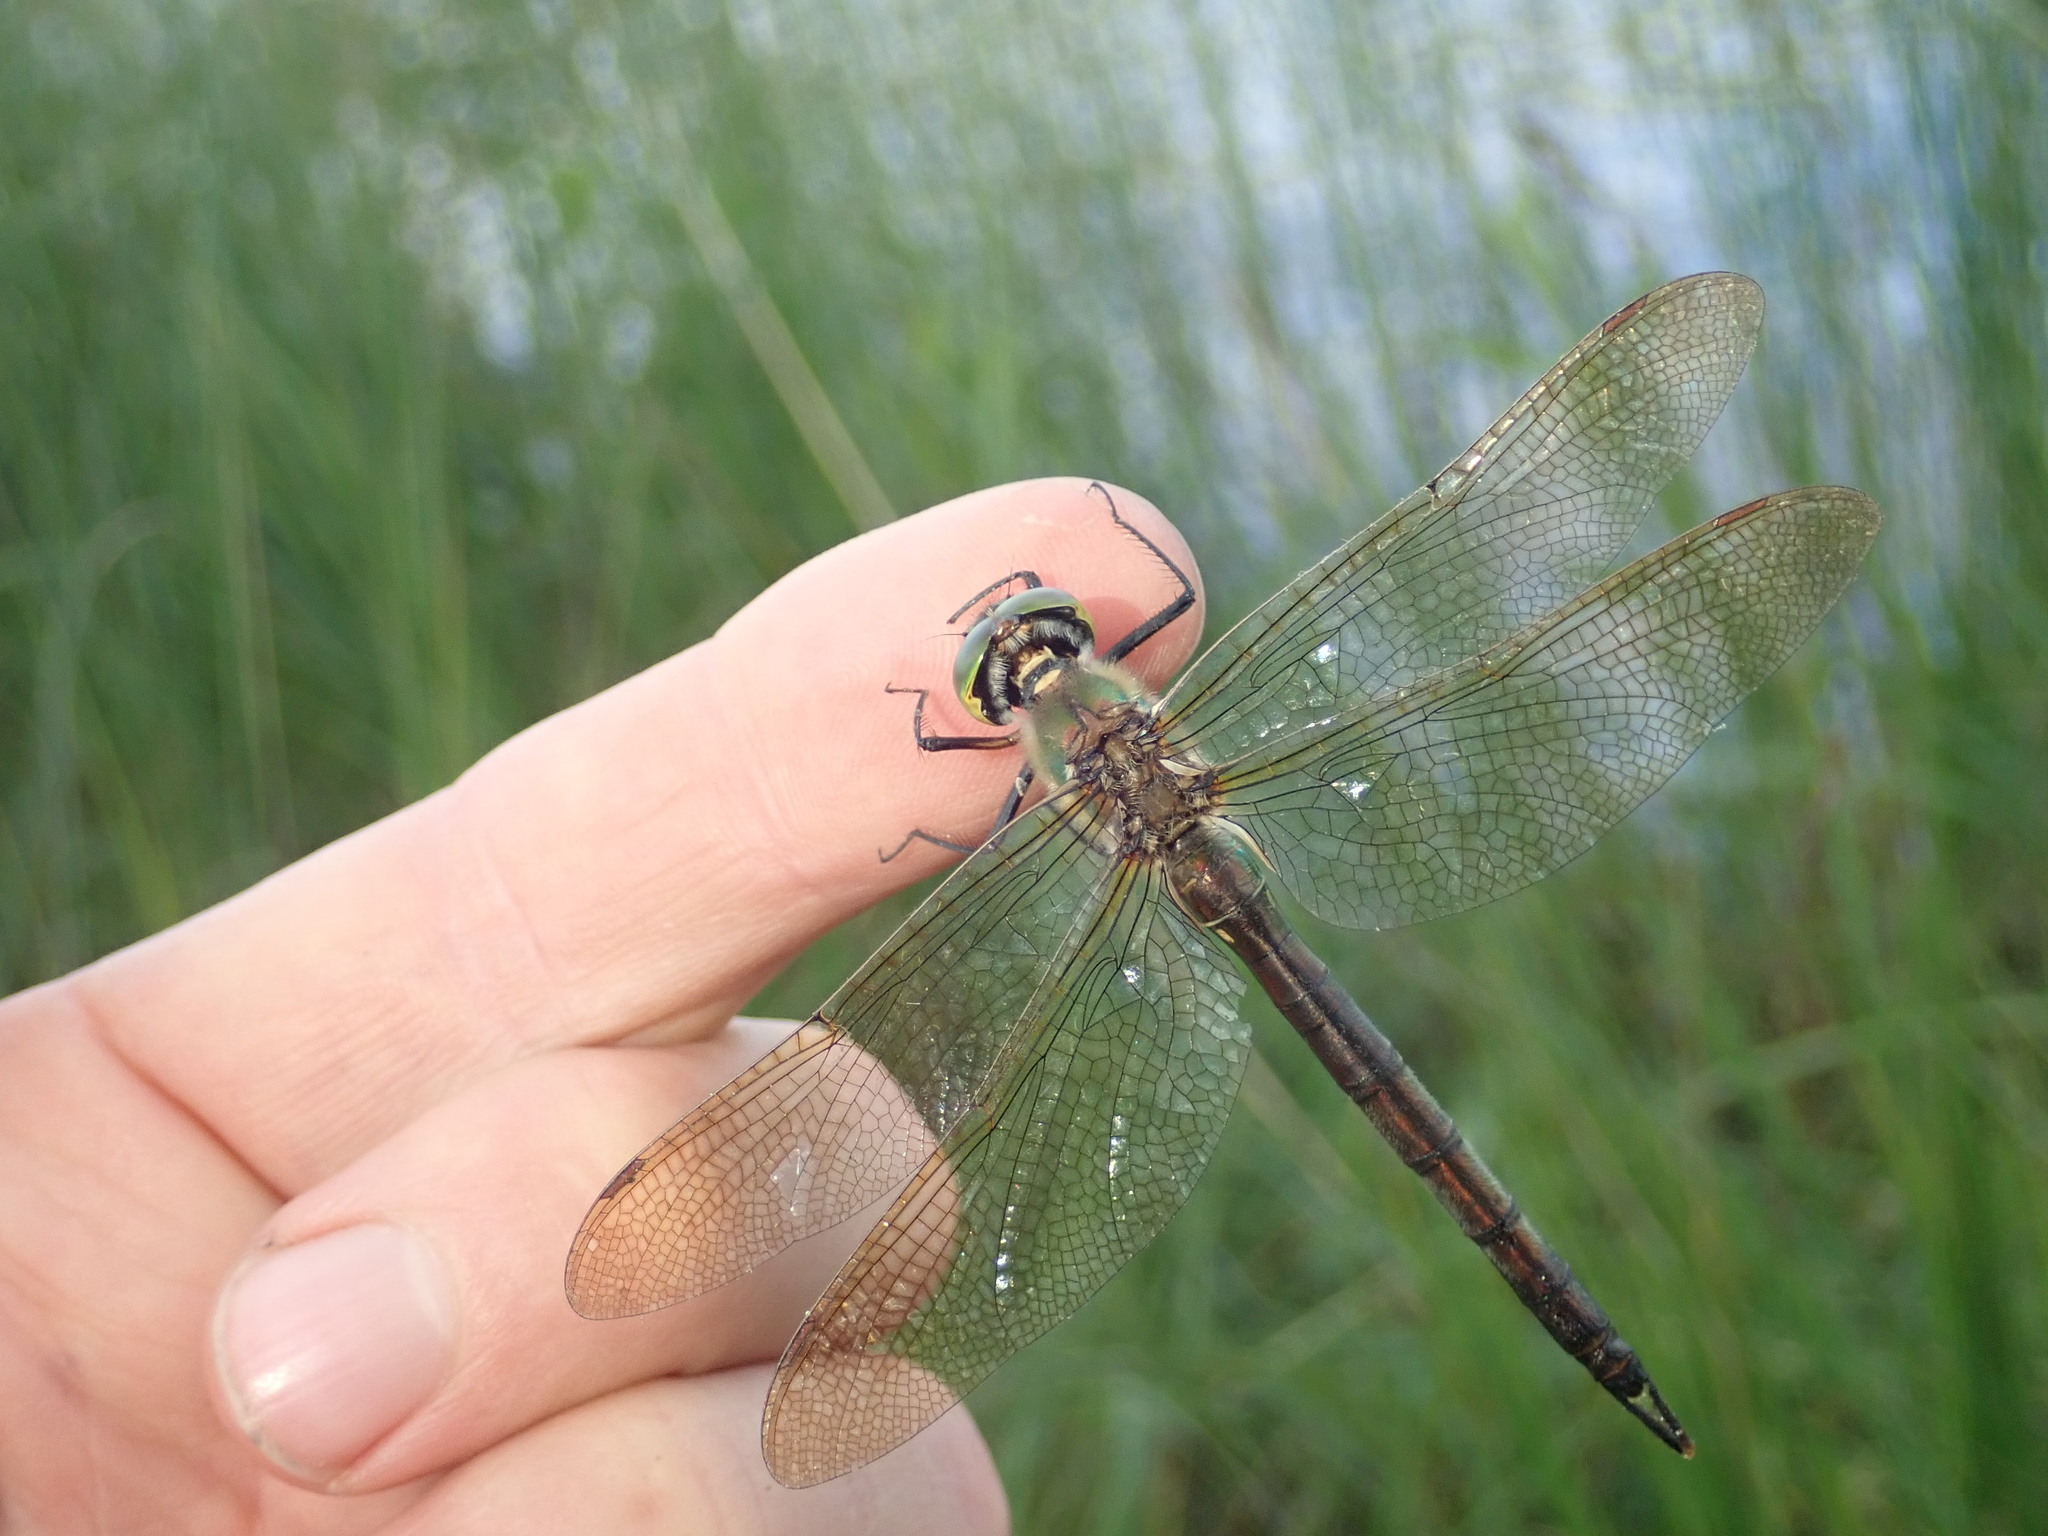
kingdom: Animalia
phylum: Arthropoda
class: Insecta
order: Odonata
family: Corduliidae
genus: Somatochlora
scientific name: Somatochlora metallica
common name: Brilliant emerald
